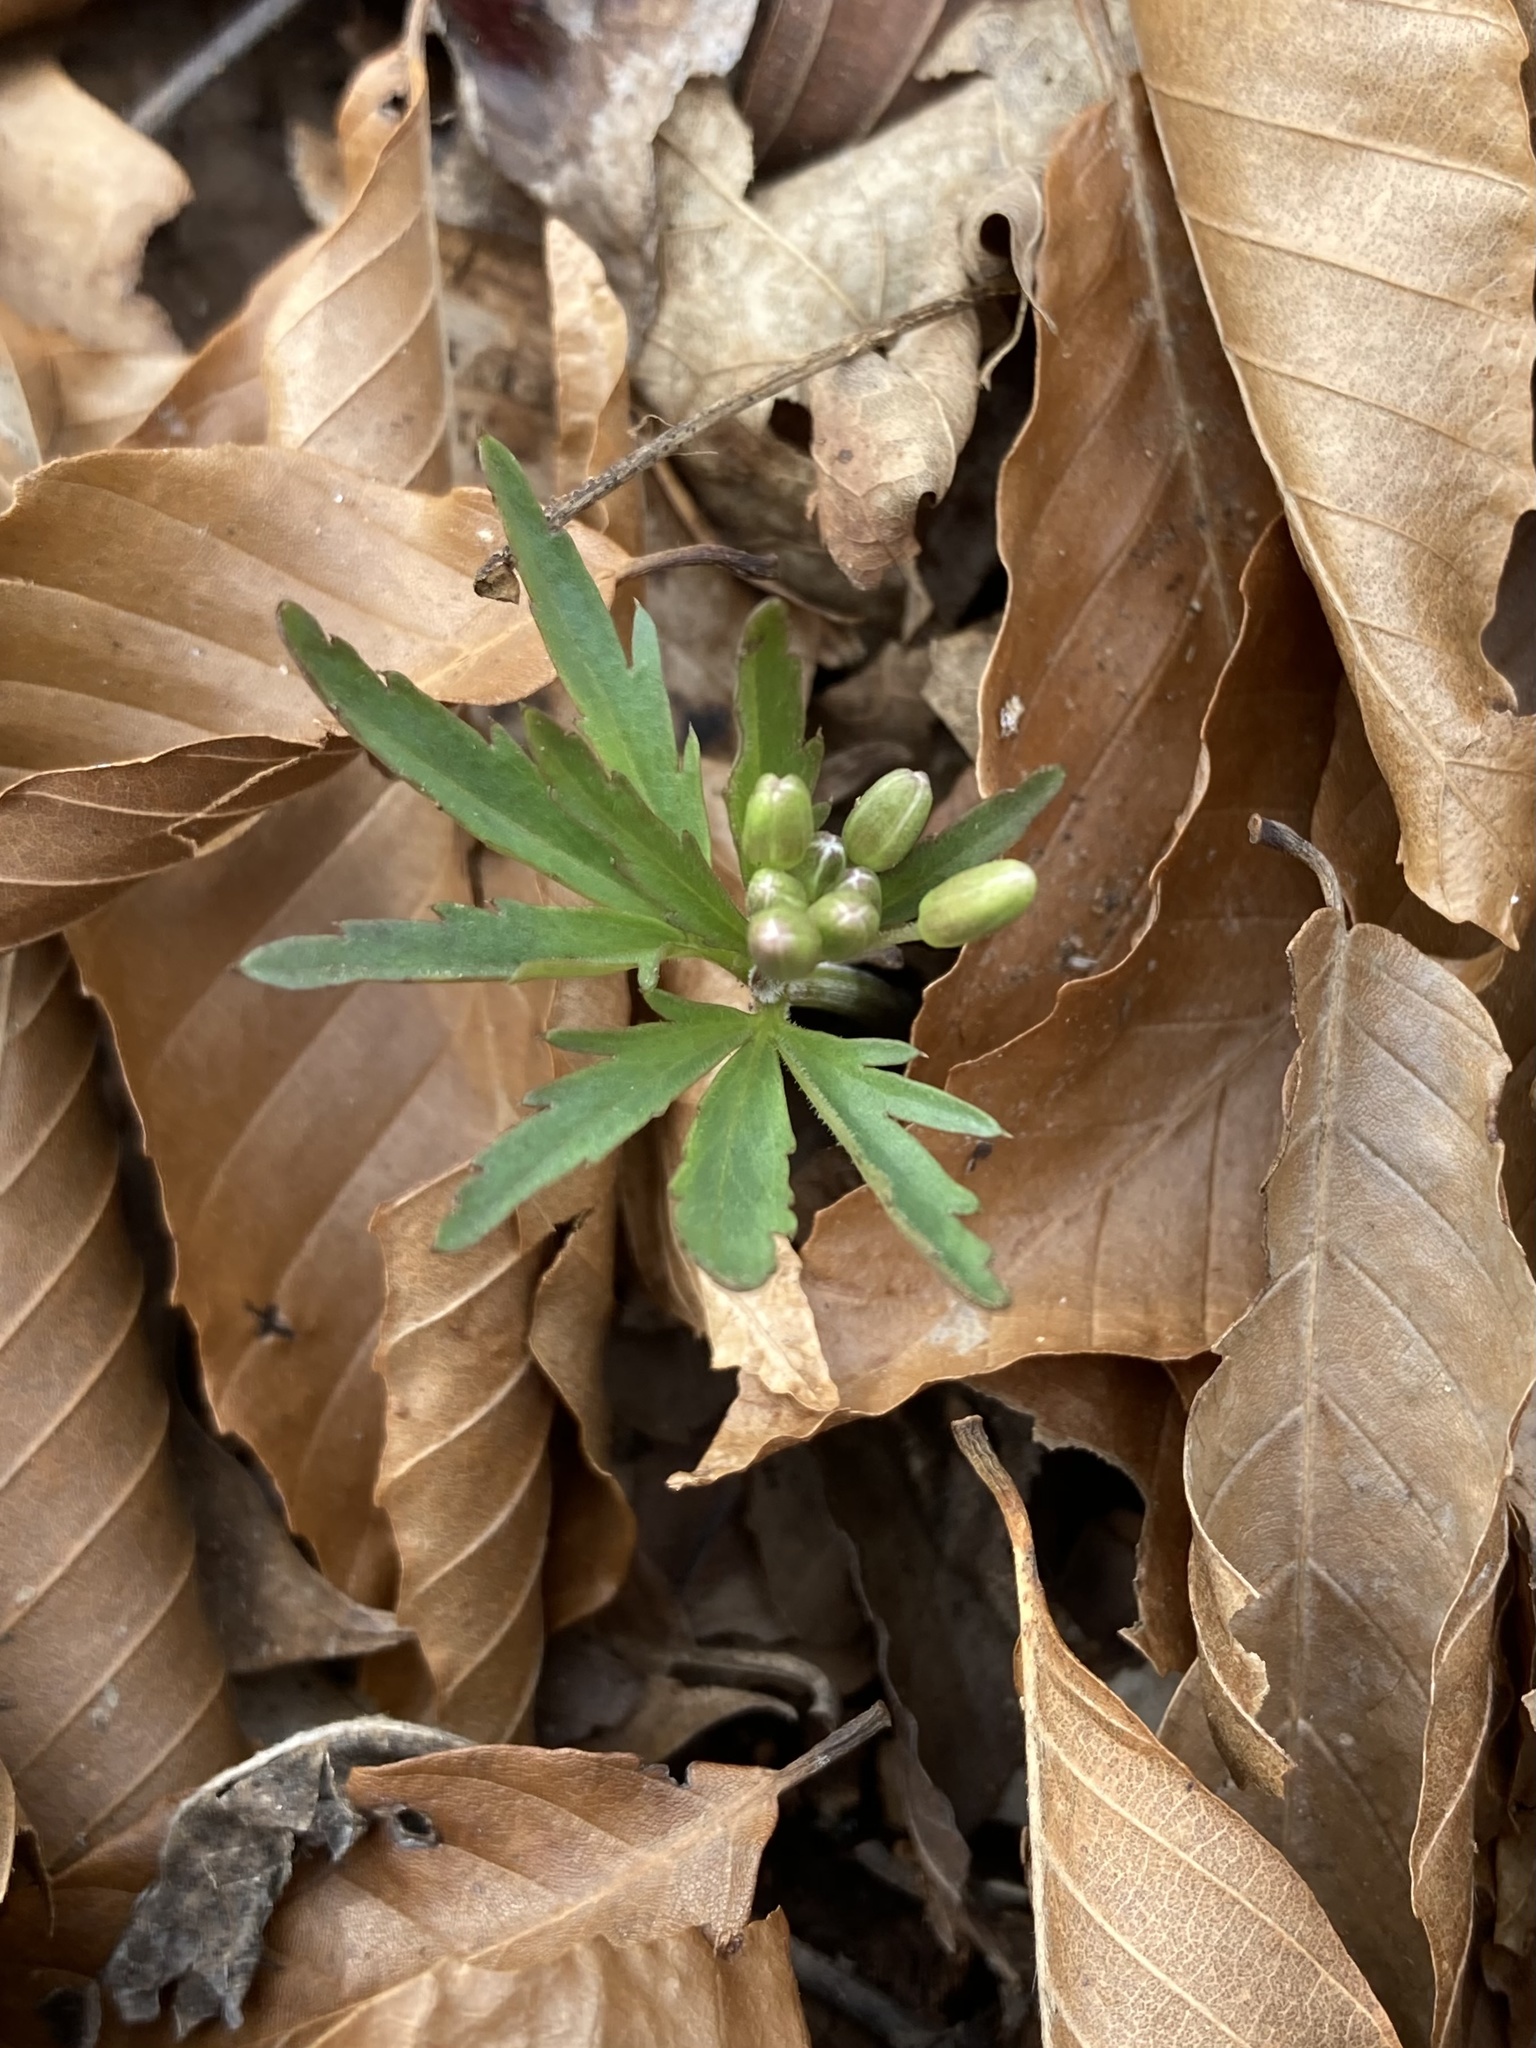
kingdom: Plantae
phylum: Tracheophyta
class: Magnoliopsida
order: Brassicales
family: Brassicaceae
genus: Cardamine
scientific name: Cardamine concatenata
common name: Cut-leaf toothcup
